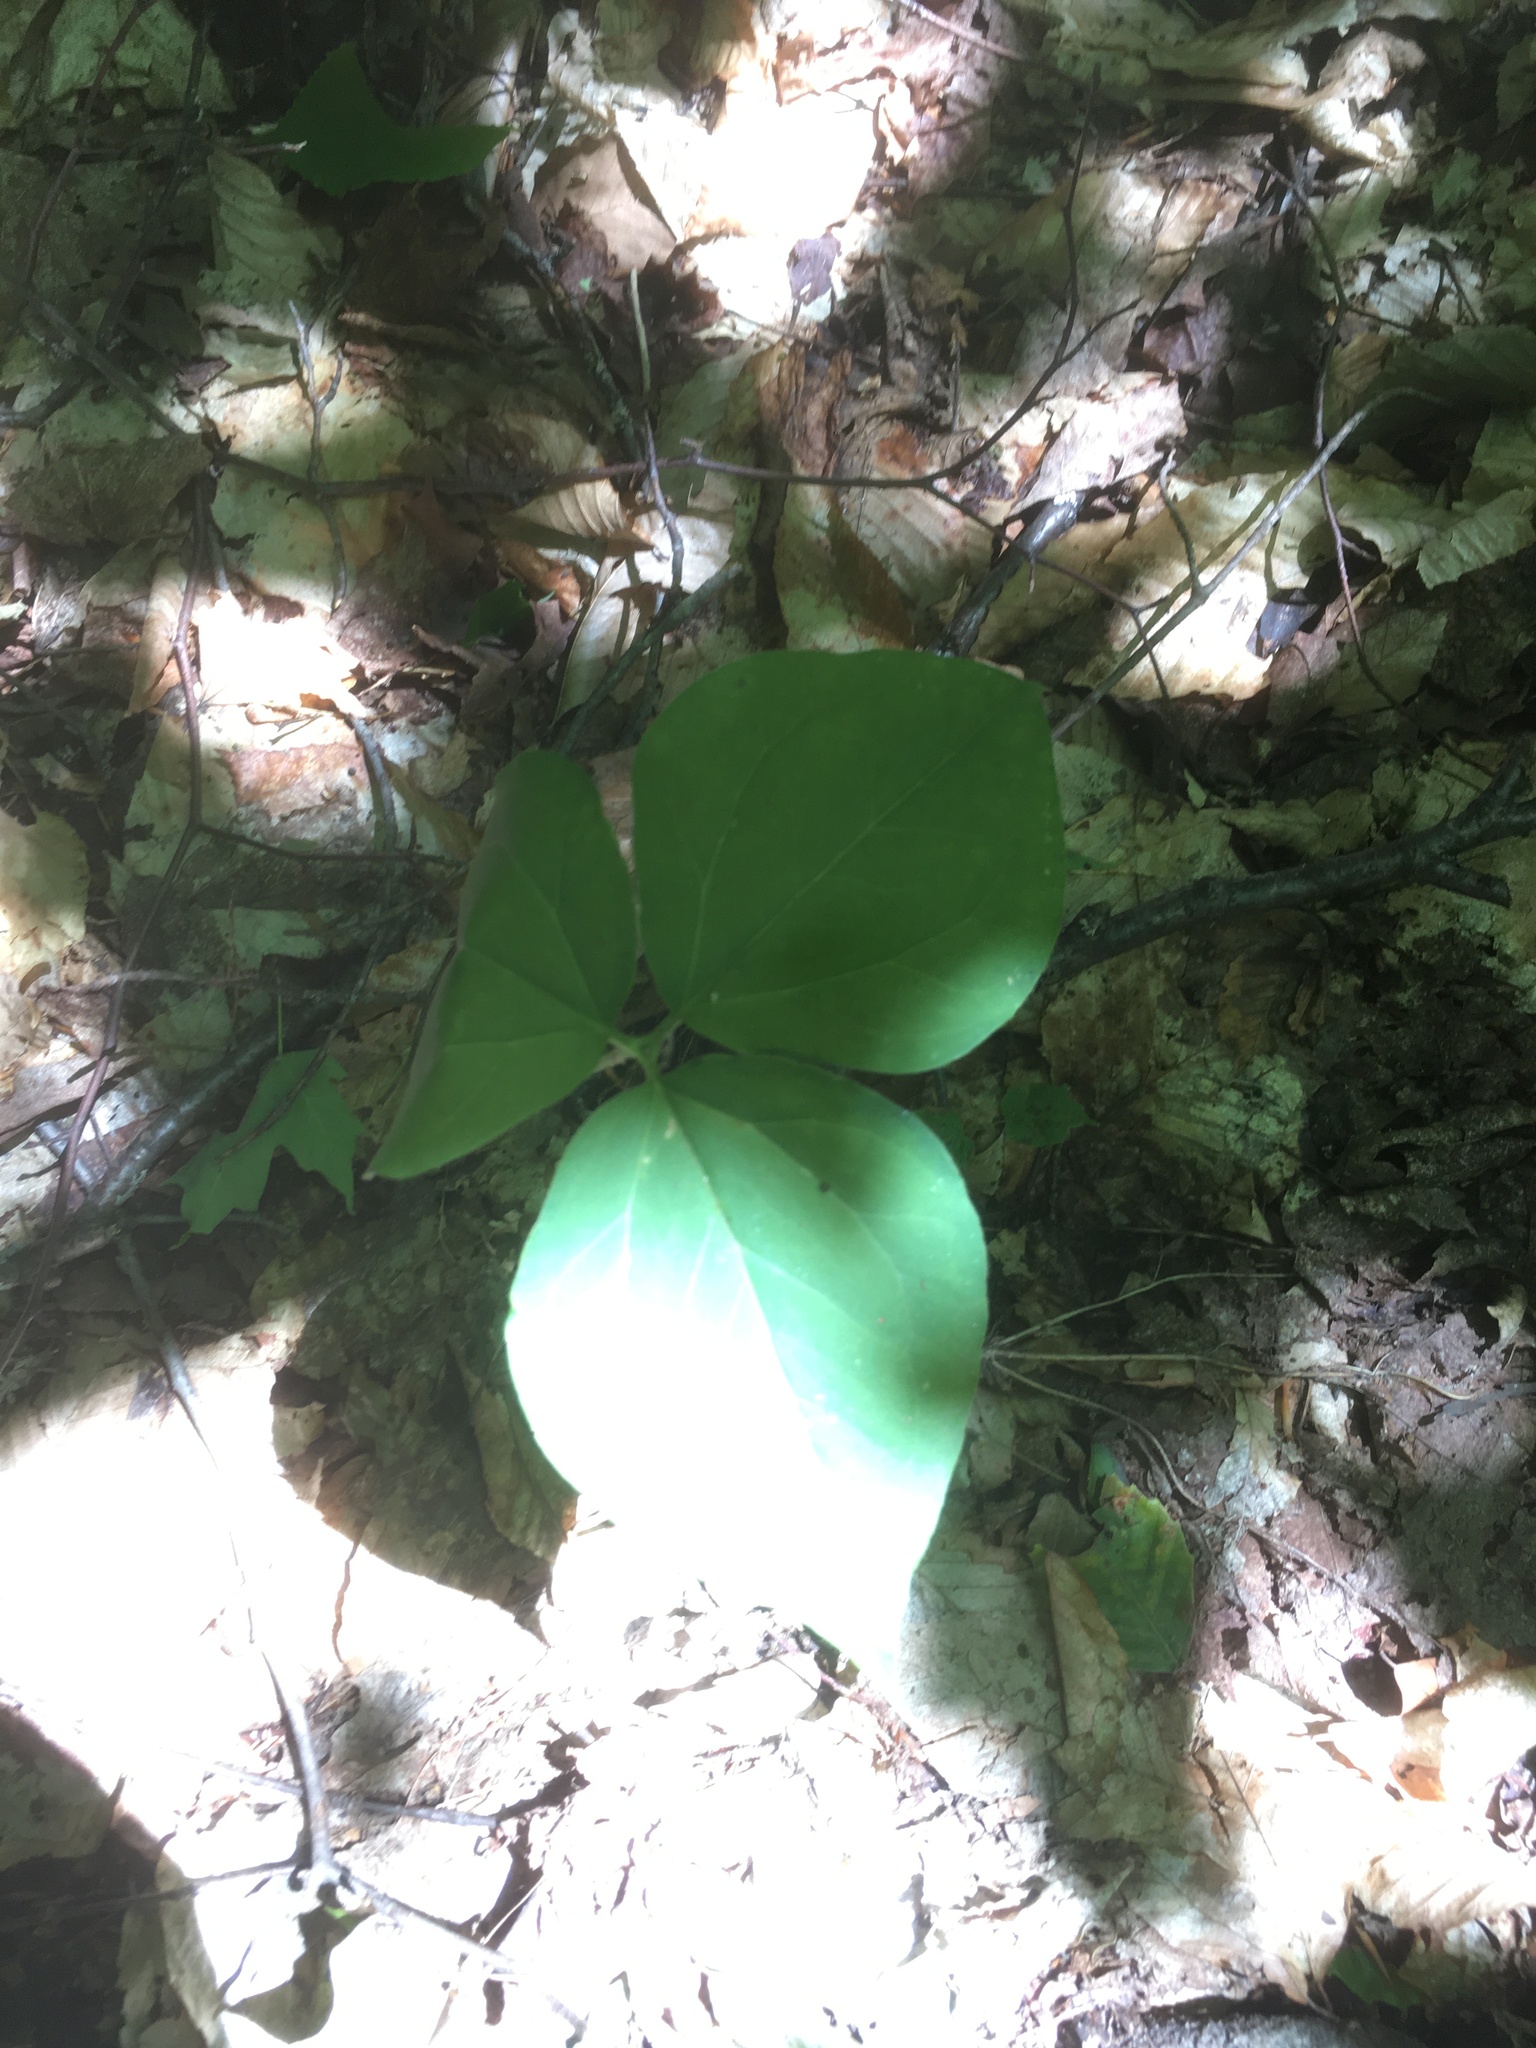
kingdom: Plantae
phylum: Tracheophyta
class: Liliopsida
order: Liliales
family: Melanthiaceae
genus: Trillium
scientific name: Trillium undulatum
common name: Paint trillium
